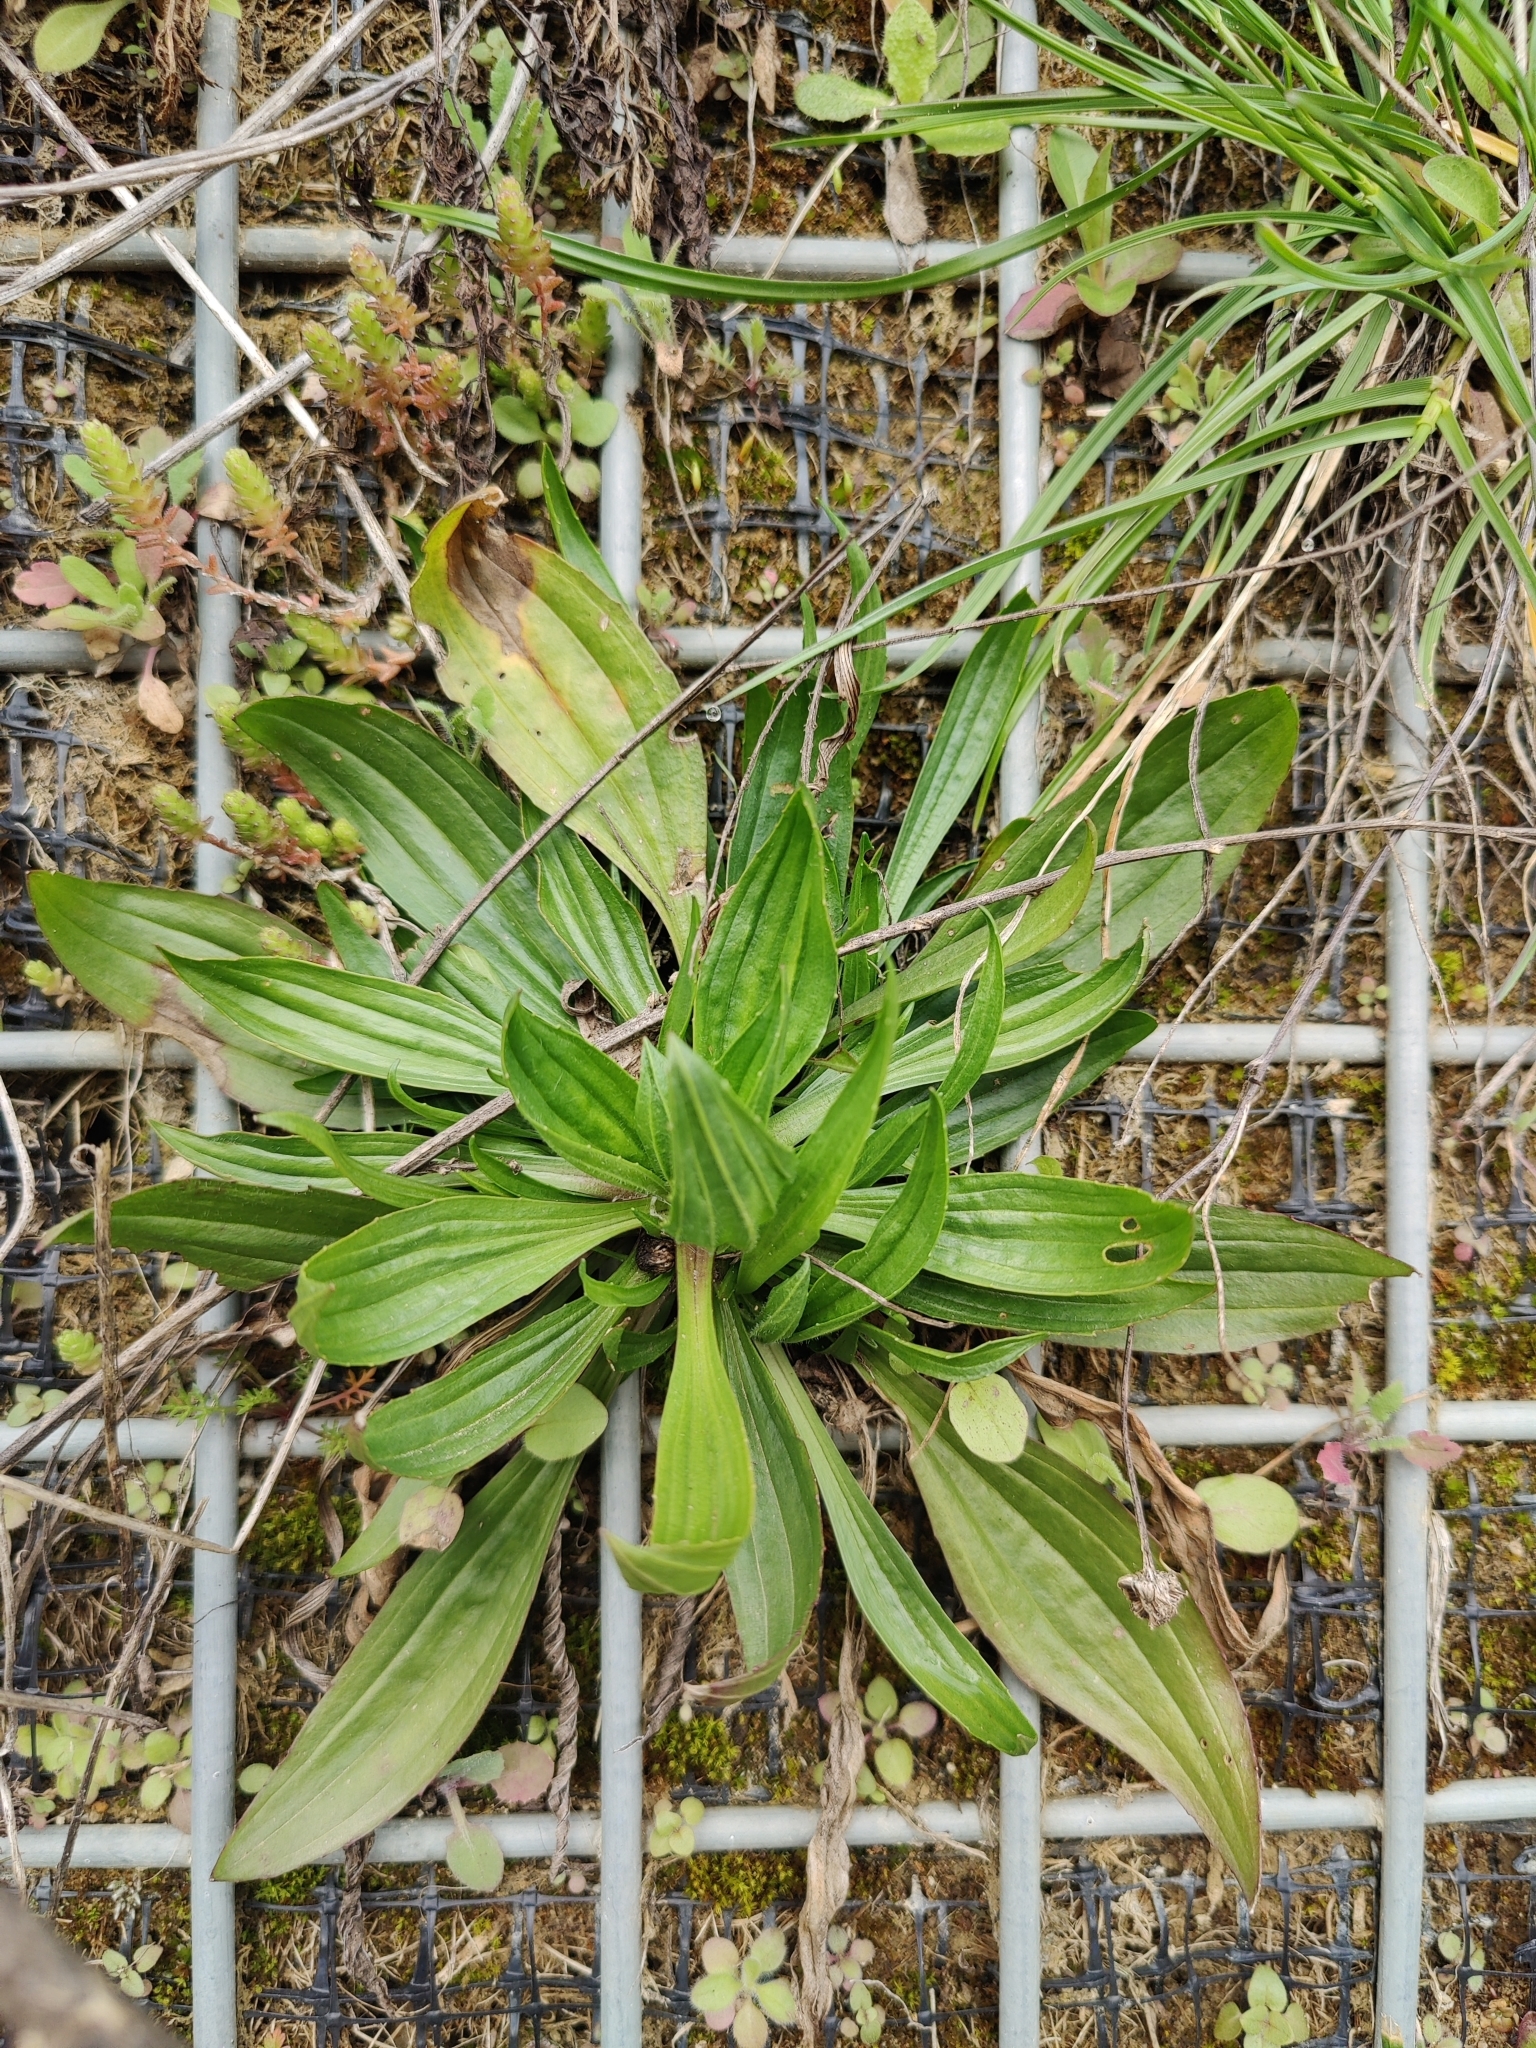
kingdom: Plantae
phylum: Tracheophyta
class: Magnoliopsida
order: Lamiales
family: Plantaginaceae
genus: Plantago
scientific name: Plantago lanceolata
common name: Ribwort plantain
